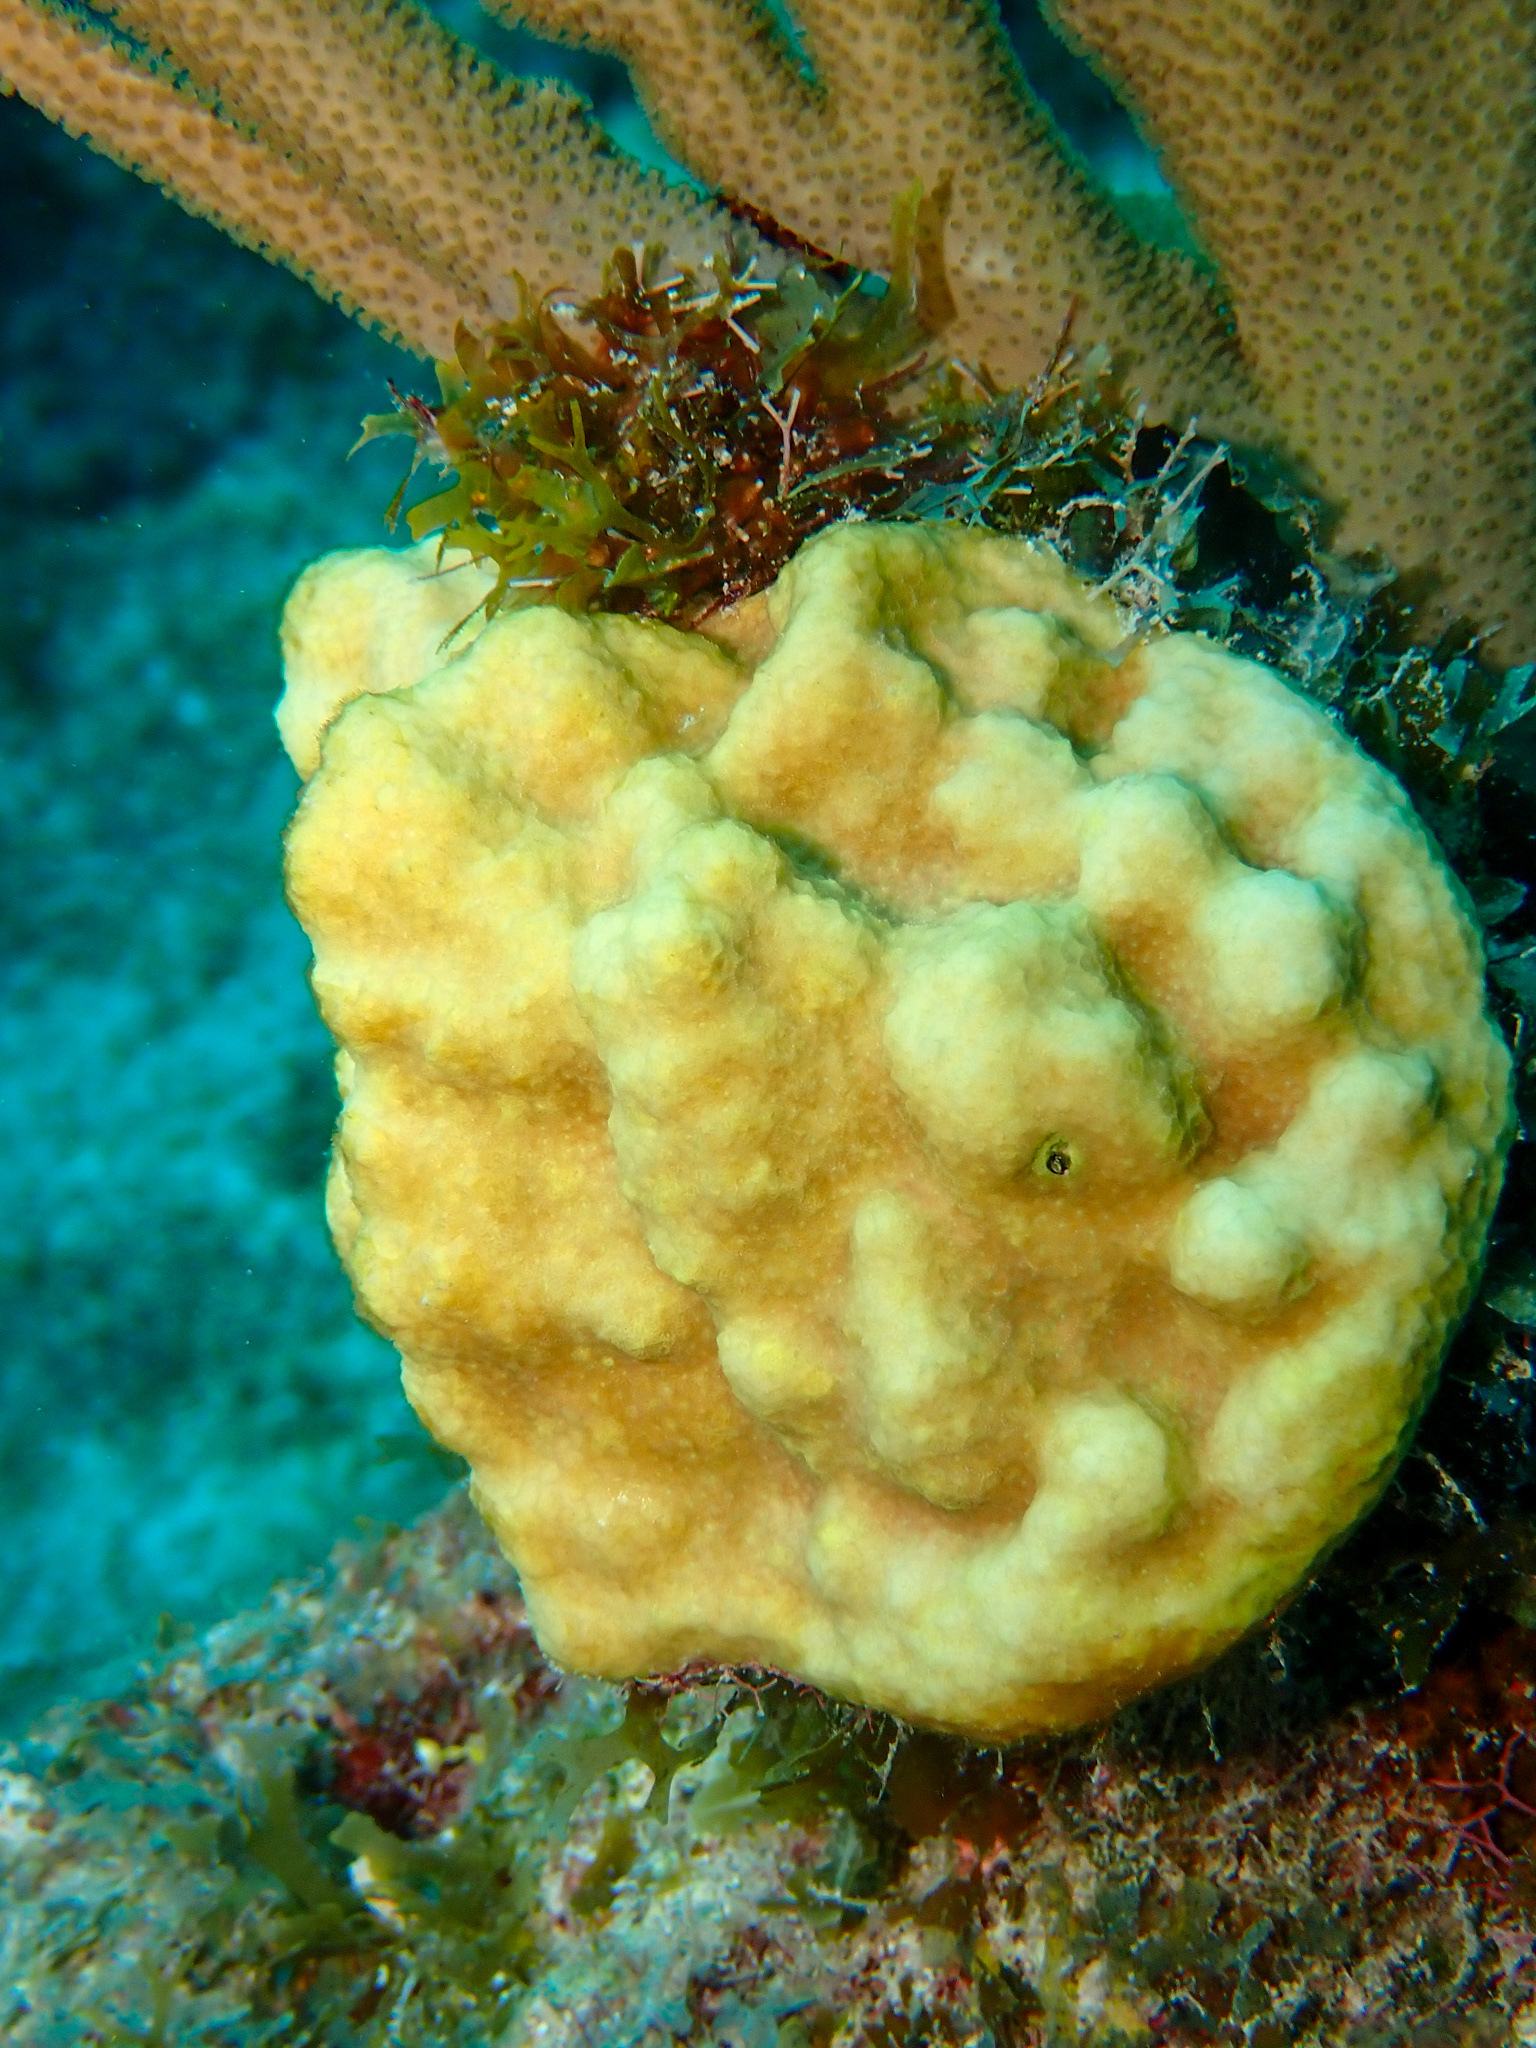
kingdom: Animalia
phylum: Cnidaria
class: Anthozoa
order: Scleractinia
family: Poritidae
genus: Porites
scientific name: Porites astreoides
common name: Mustard hill coral
